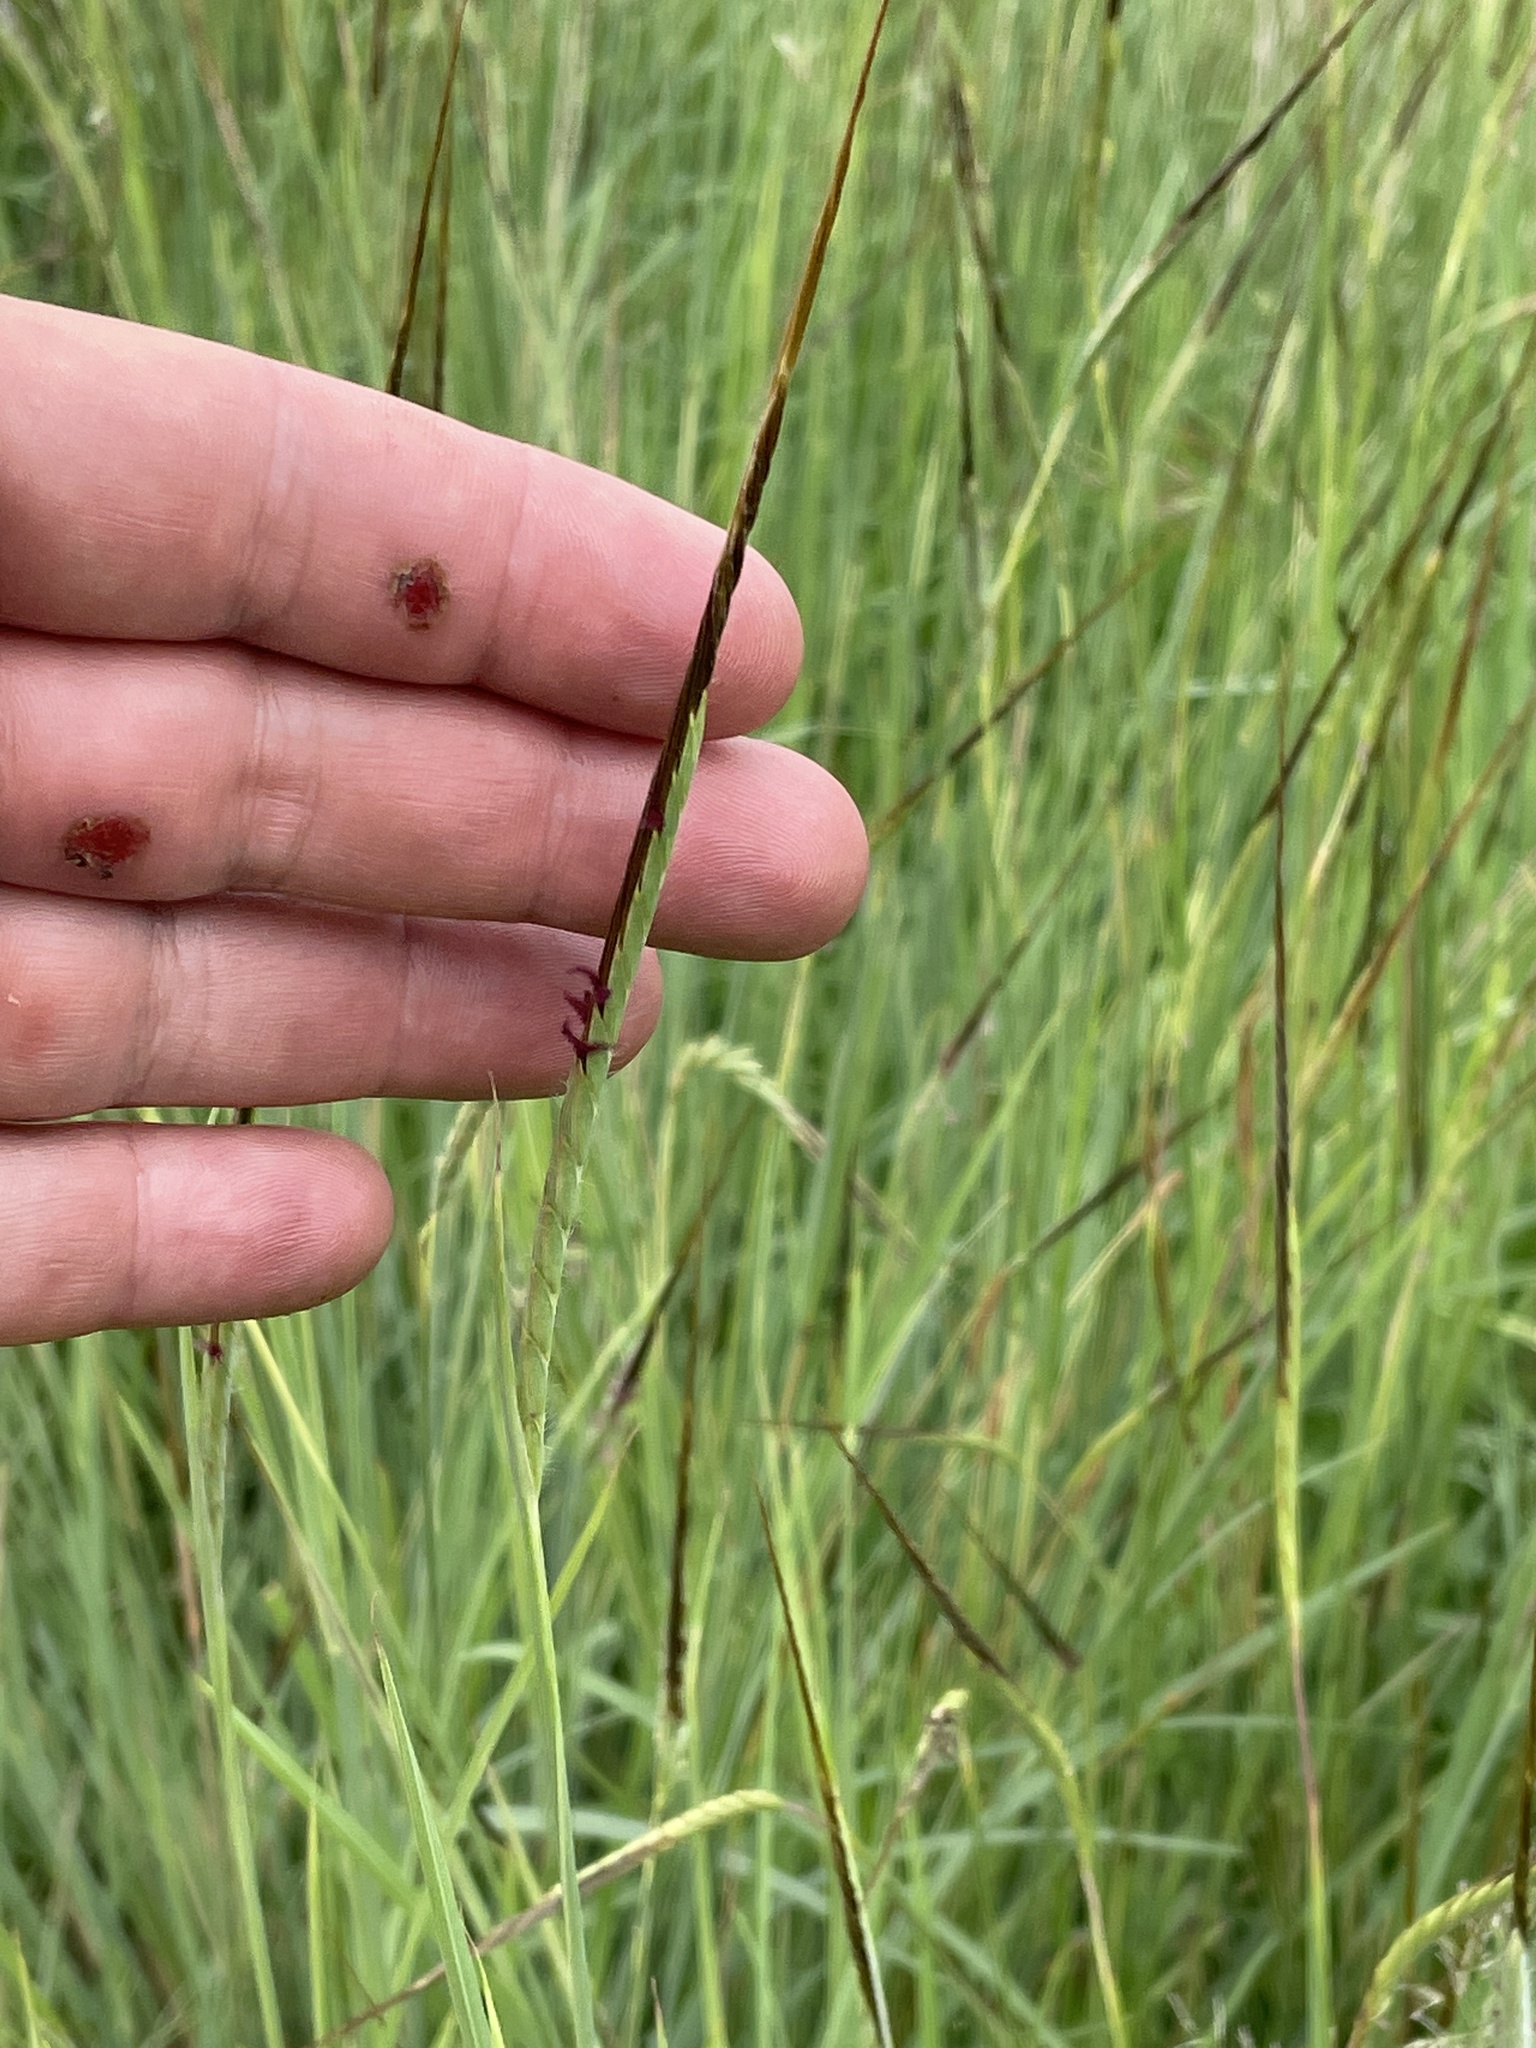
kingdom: Plantae
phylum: Tracheophyta
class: Liliopsida
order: Poales
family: Poaceae
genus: Heteropogon
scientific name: Heteropogon contortus
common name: Tanglehead
